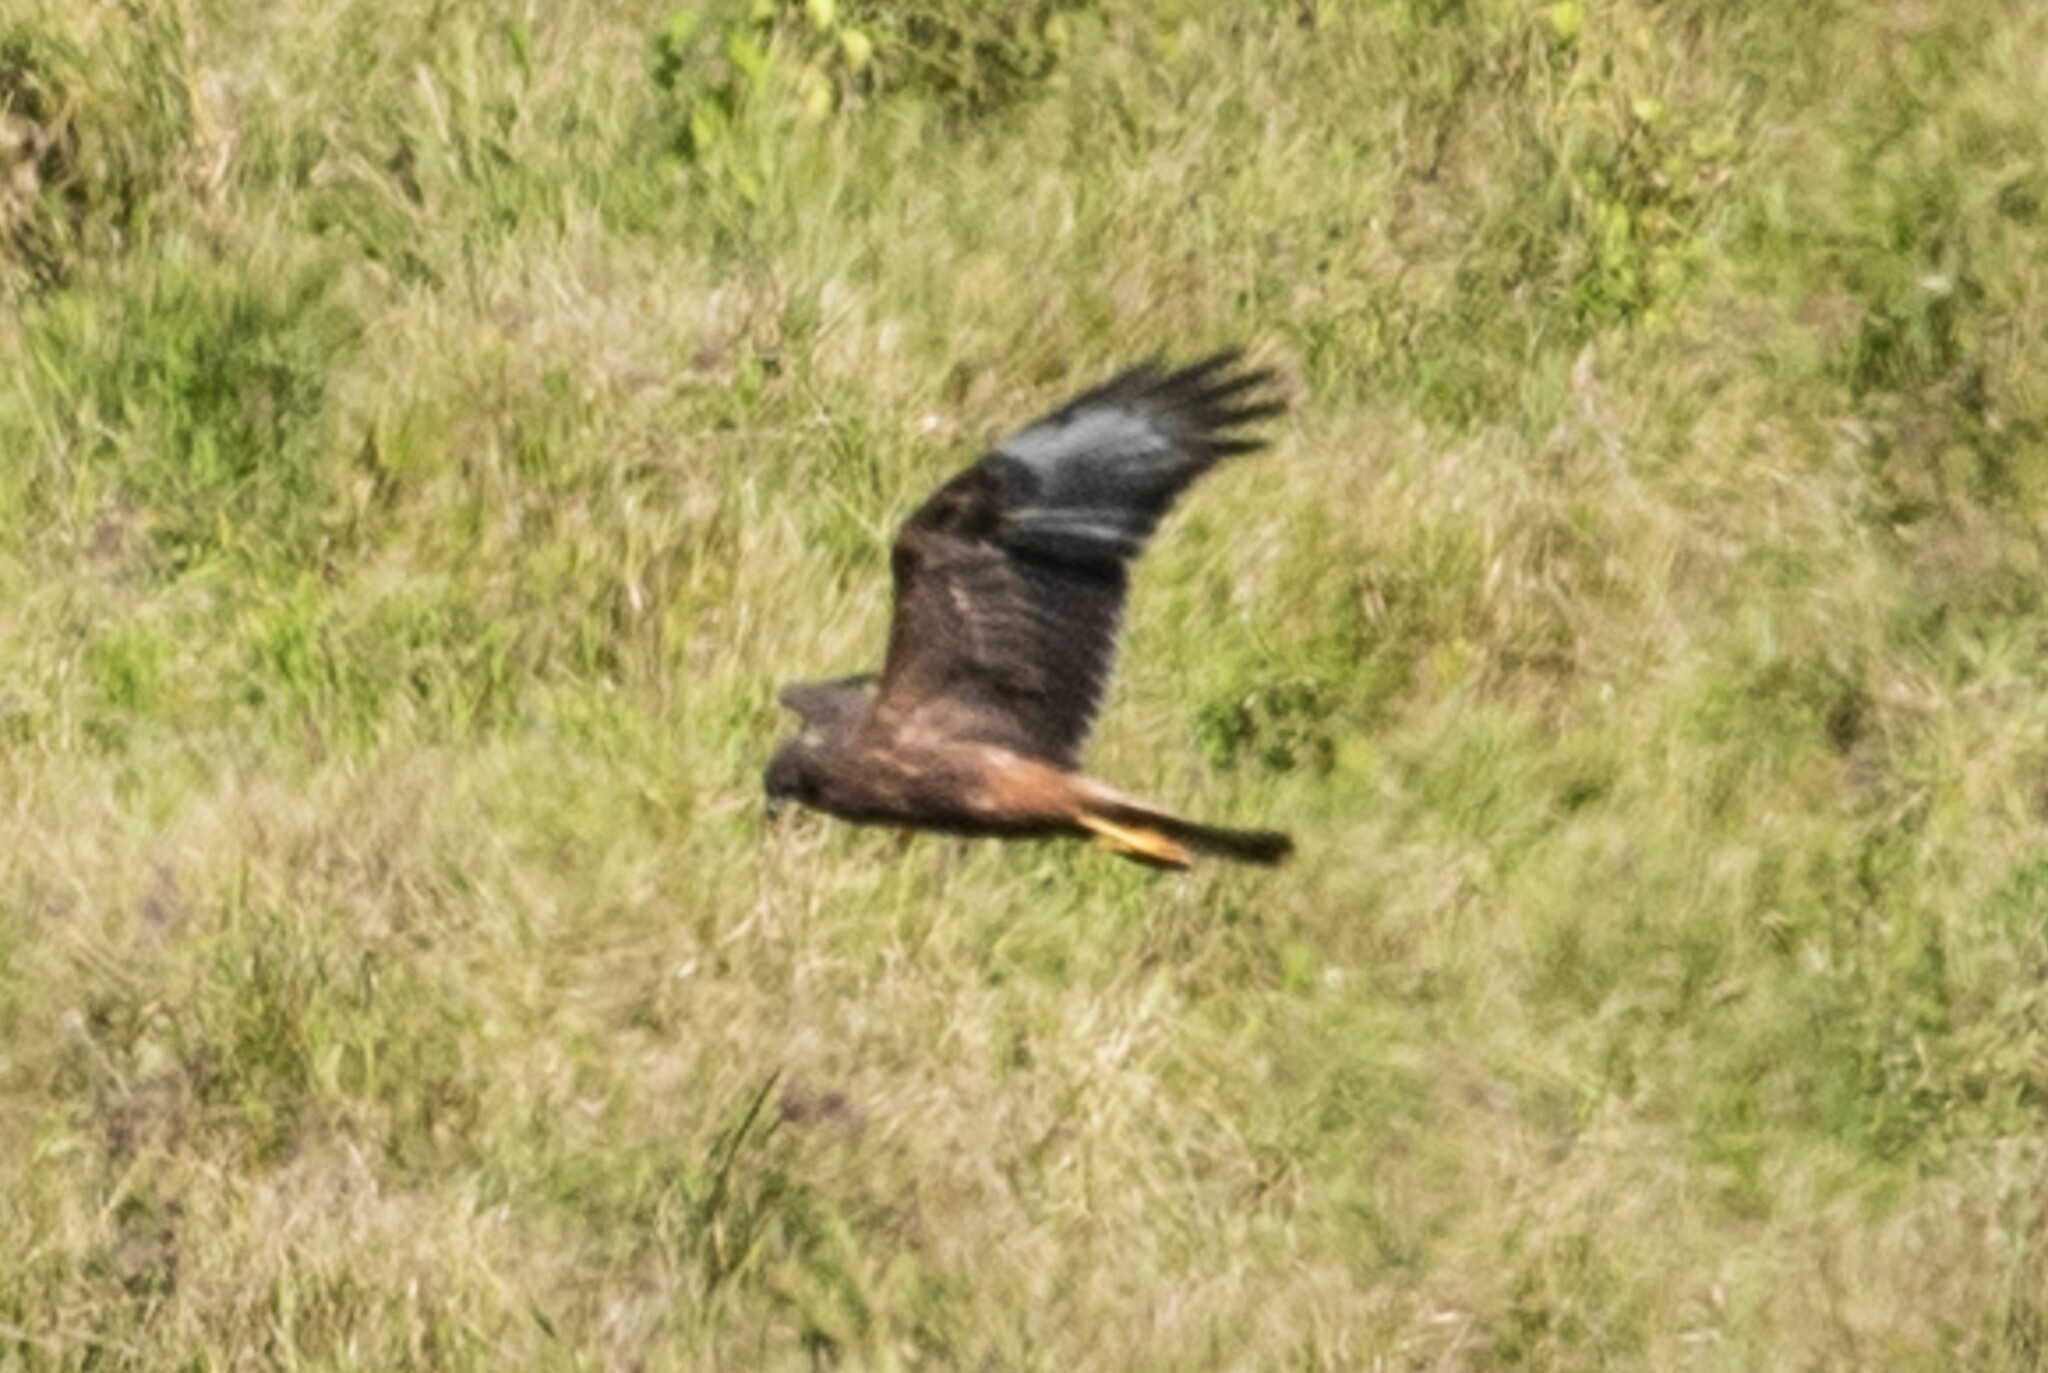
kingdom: Animalia
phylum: Chordata
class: Aves
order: Accipitriformes
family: Accipitridae
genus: Circus
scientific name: Circus approximans
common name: Swamp harrier
